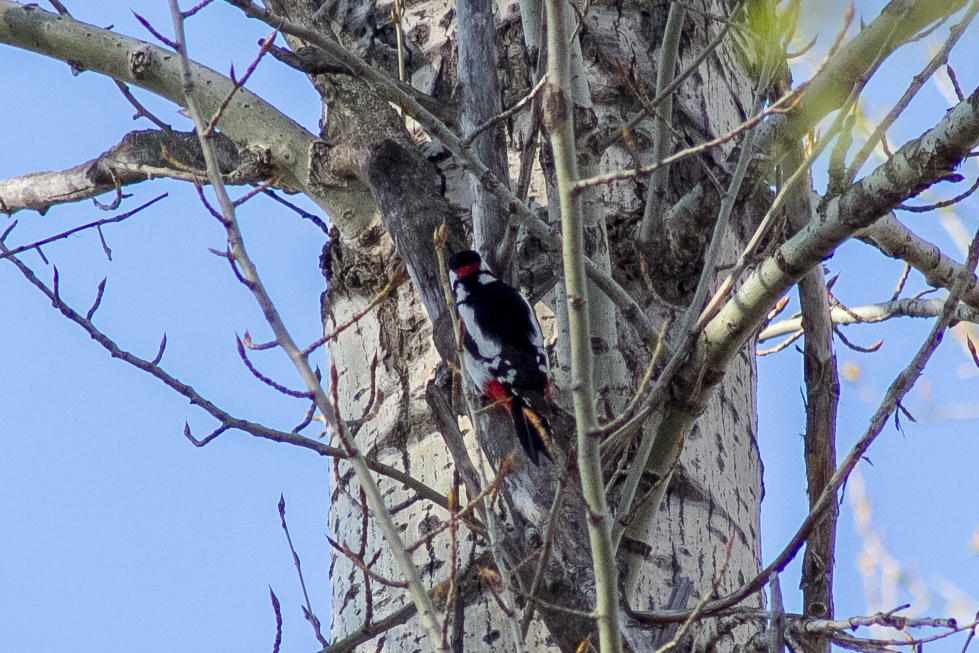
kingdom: Animalia
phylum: Chordata
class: Aves
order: Piciformes
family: Picidae
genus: Dendrocopos
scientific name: Dendrocopos major
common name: Great spotted woodpecker
